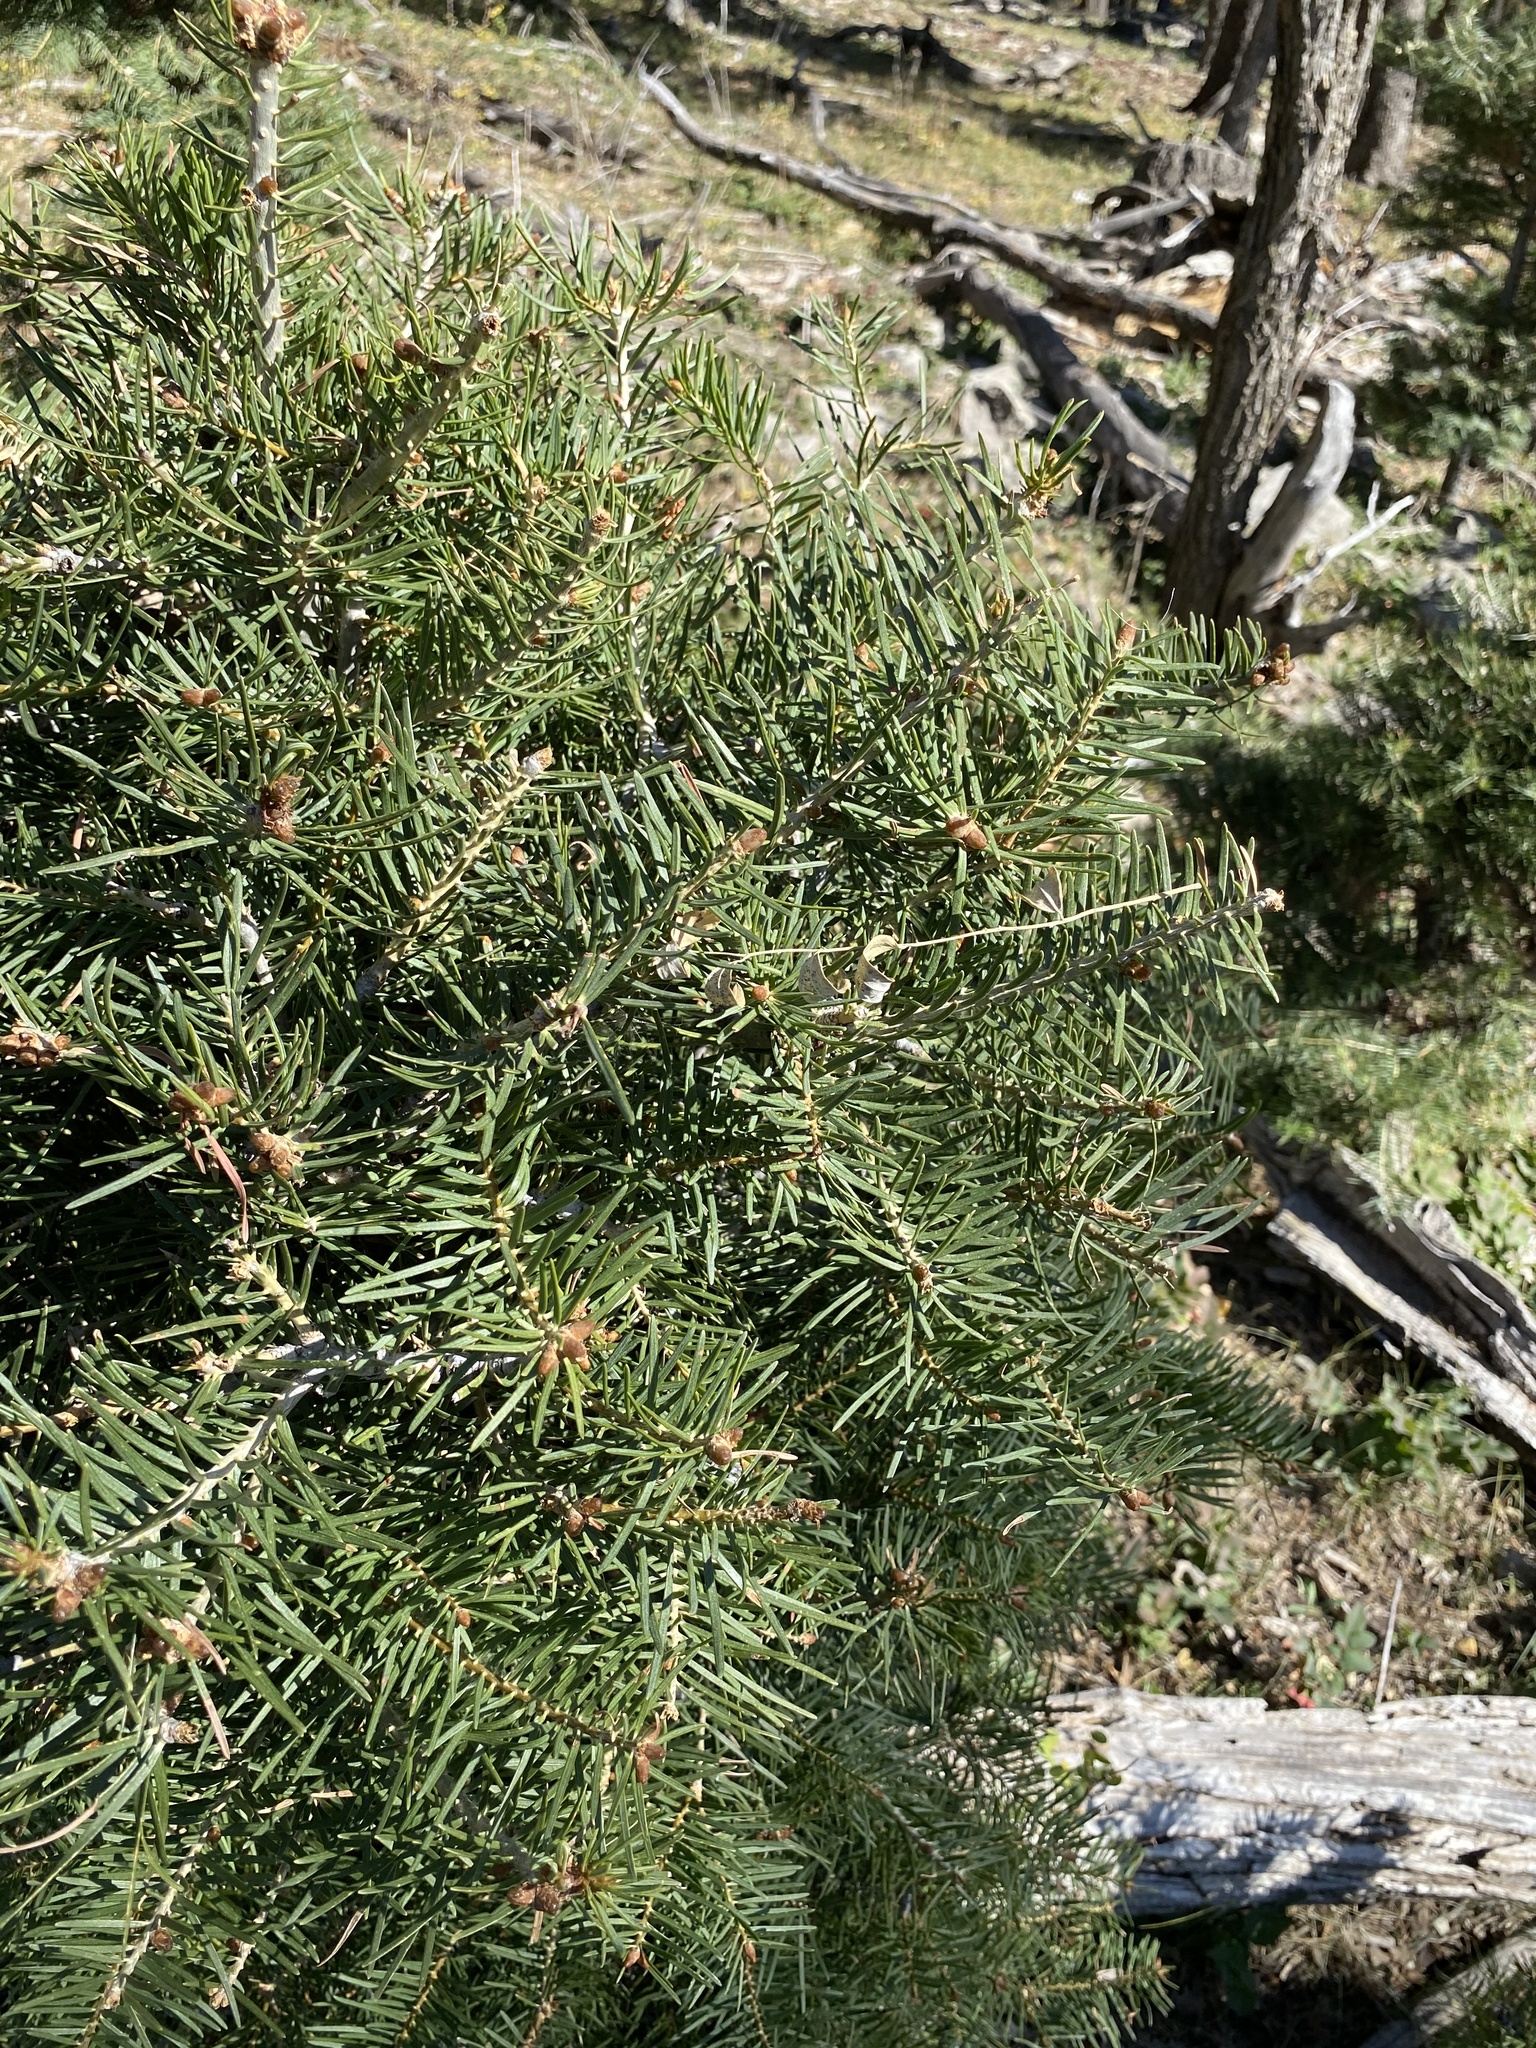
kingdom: Plantae
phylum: Tracheophyta
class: Pinopsida
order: Pinales
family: Pinaceae
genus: Abies
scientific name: Abies concolor
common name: Colorado fir
